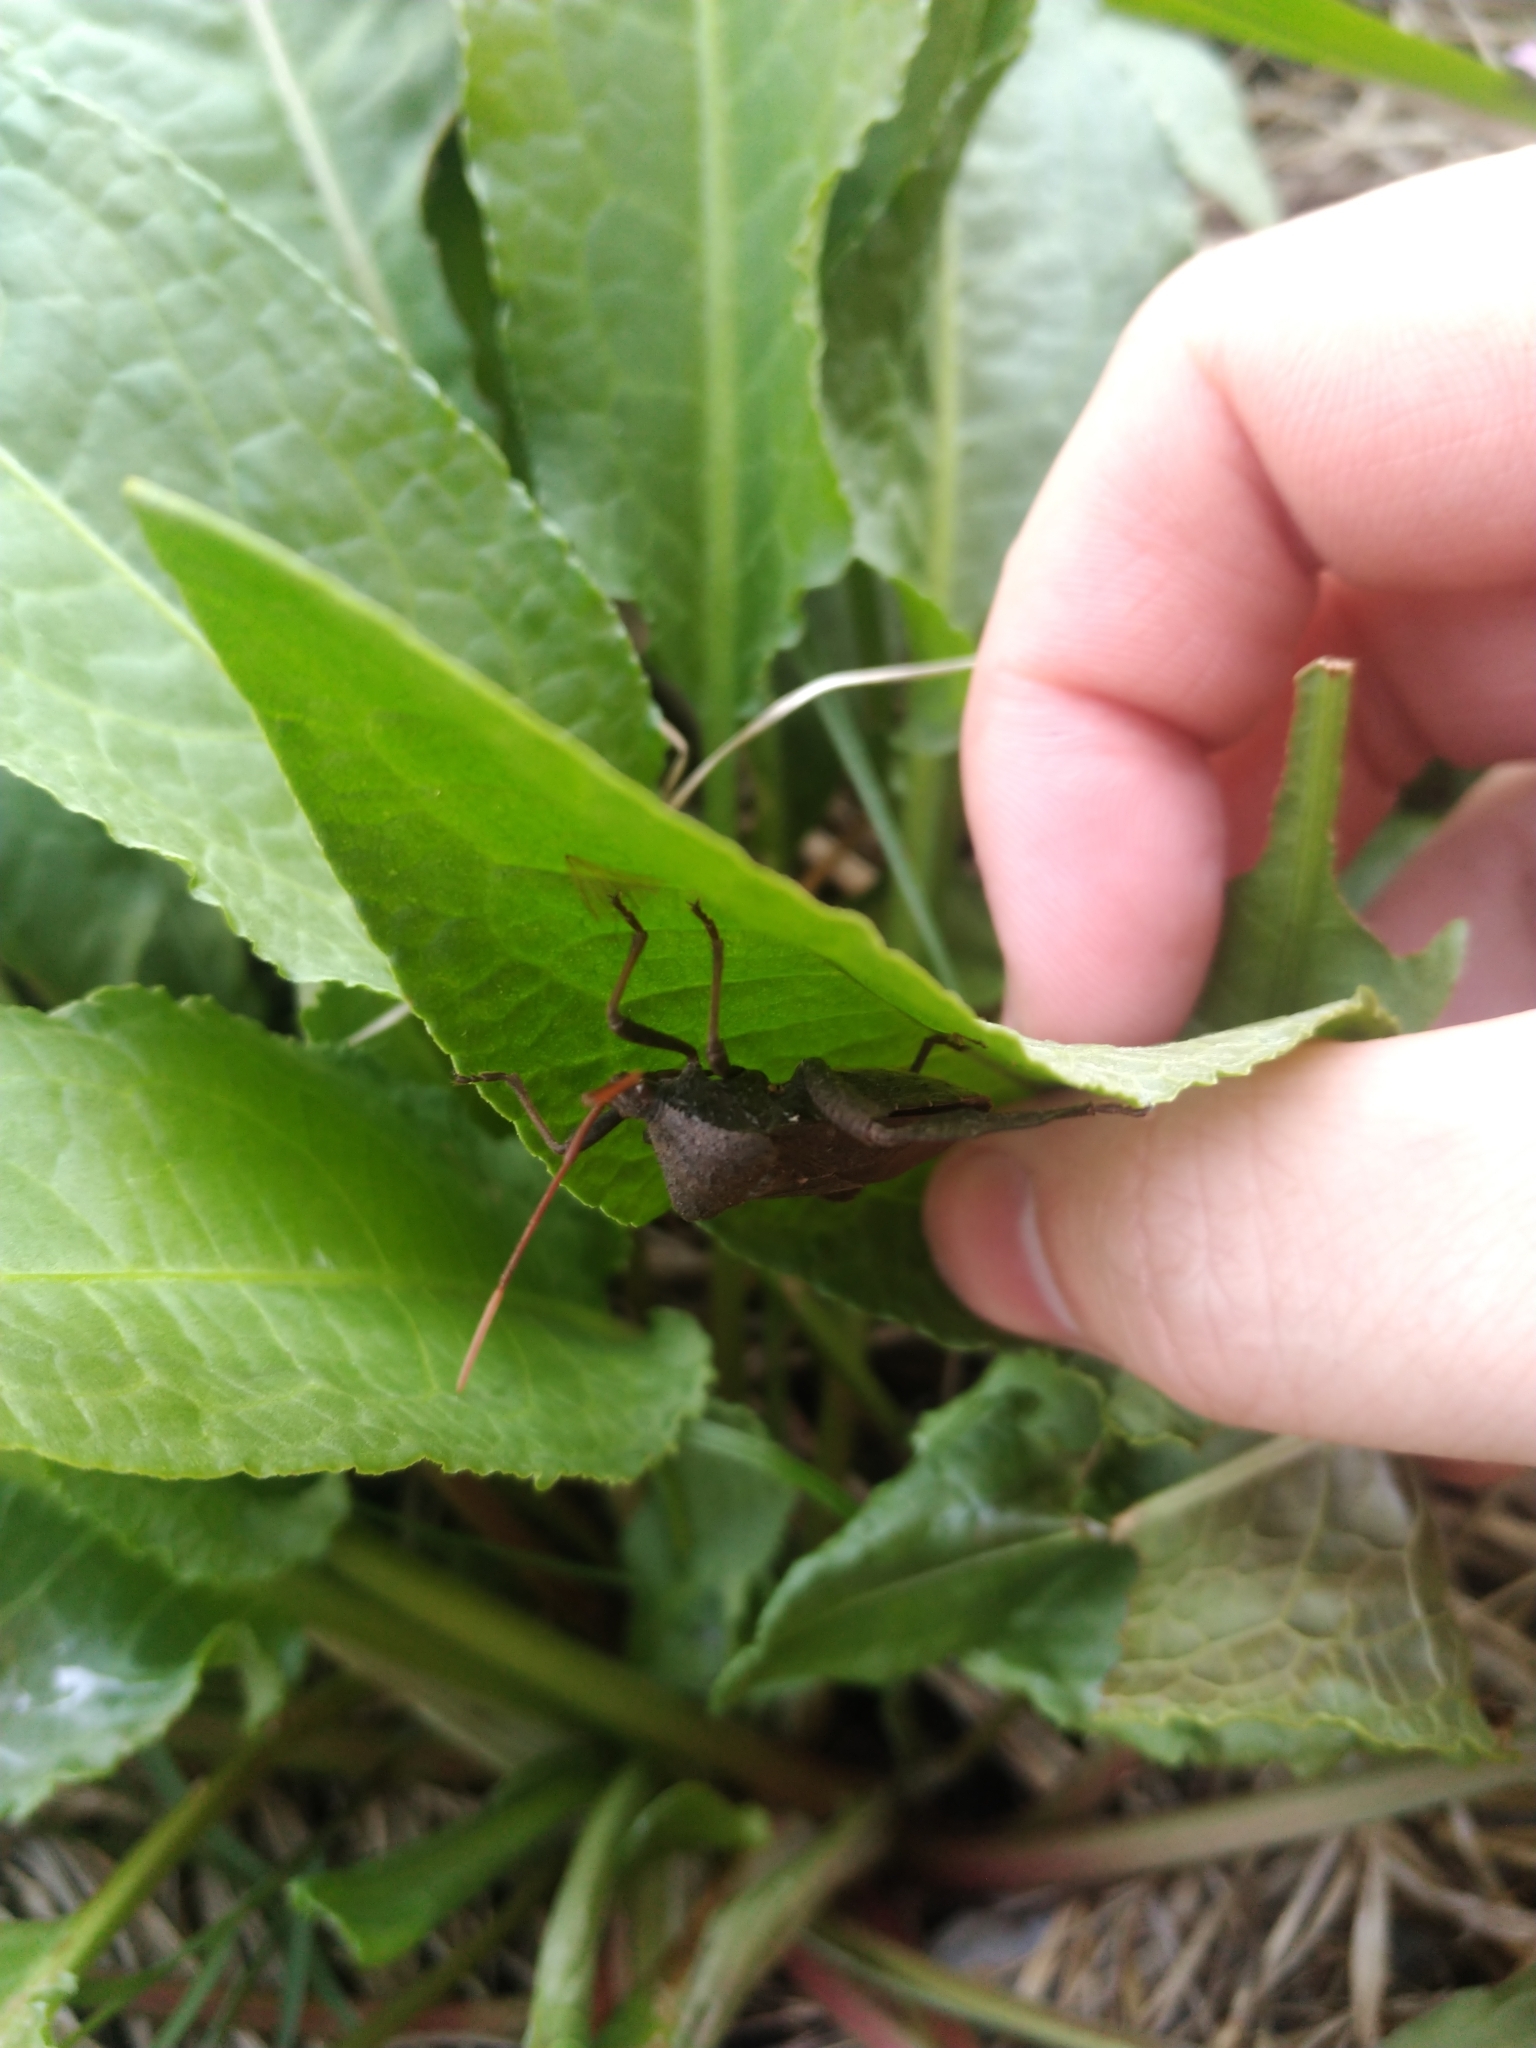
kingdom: Animalia
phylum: Arthropoda
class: Insecta
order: Hemiptera
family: Coreidae
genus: Acanthocephala
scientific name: Acanthocephala femorata
